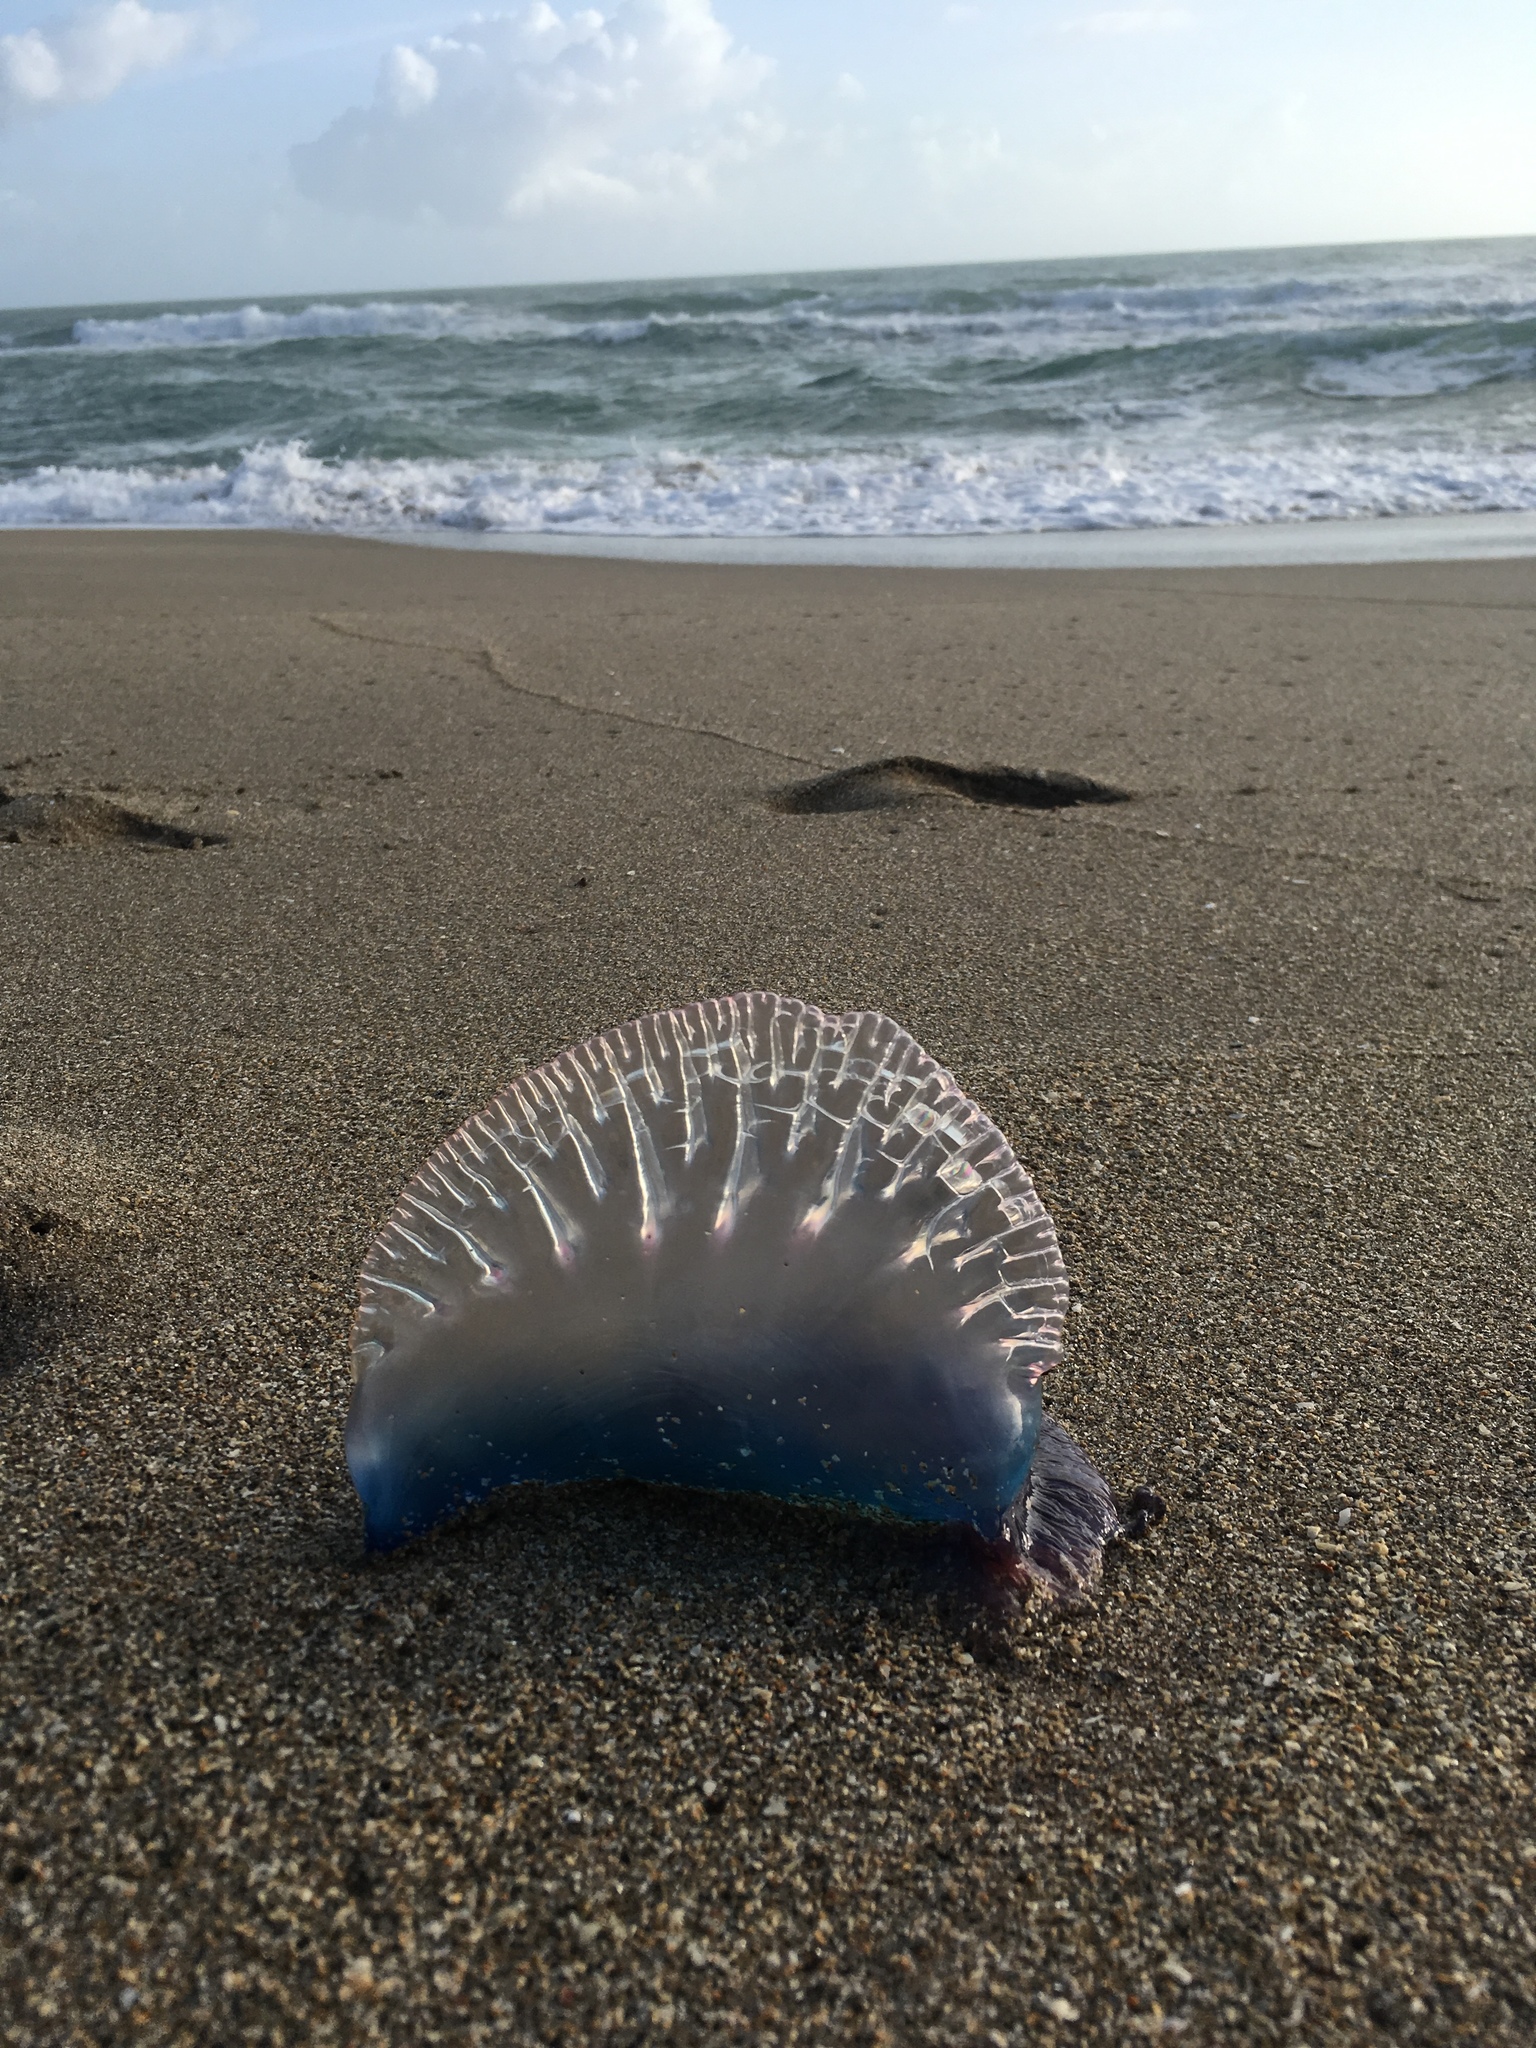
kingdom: Animalia
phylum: Cnidaria
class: Hydrozoa
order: Siphonophorae
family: Physaliidae
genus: Physalia
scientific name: Physalia physalis
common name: Portuguese man-of-war
